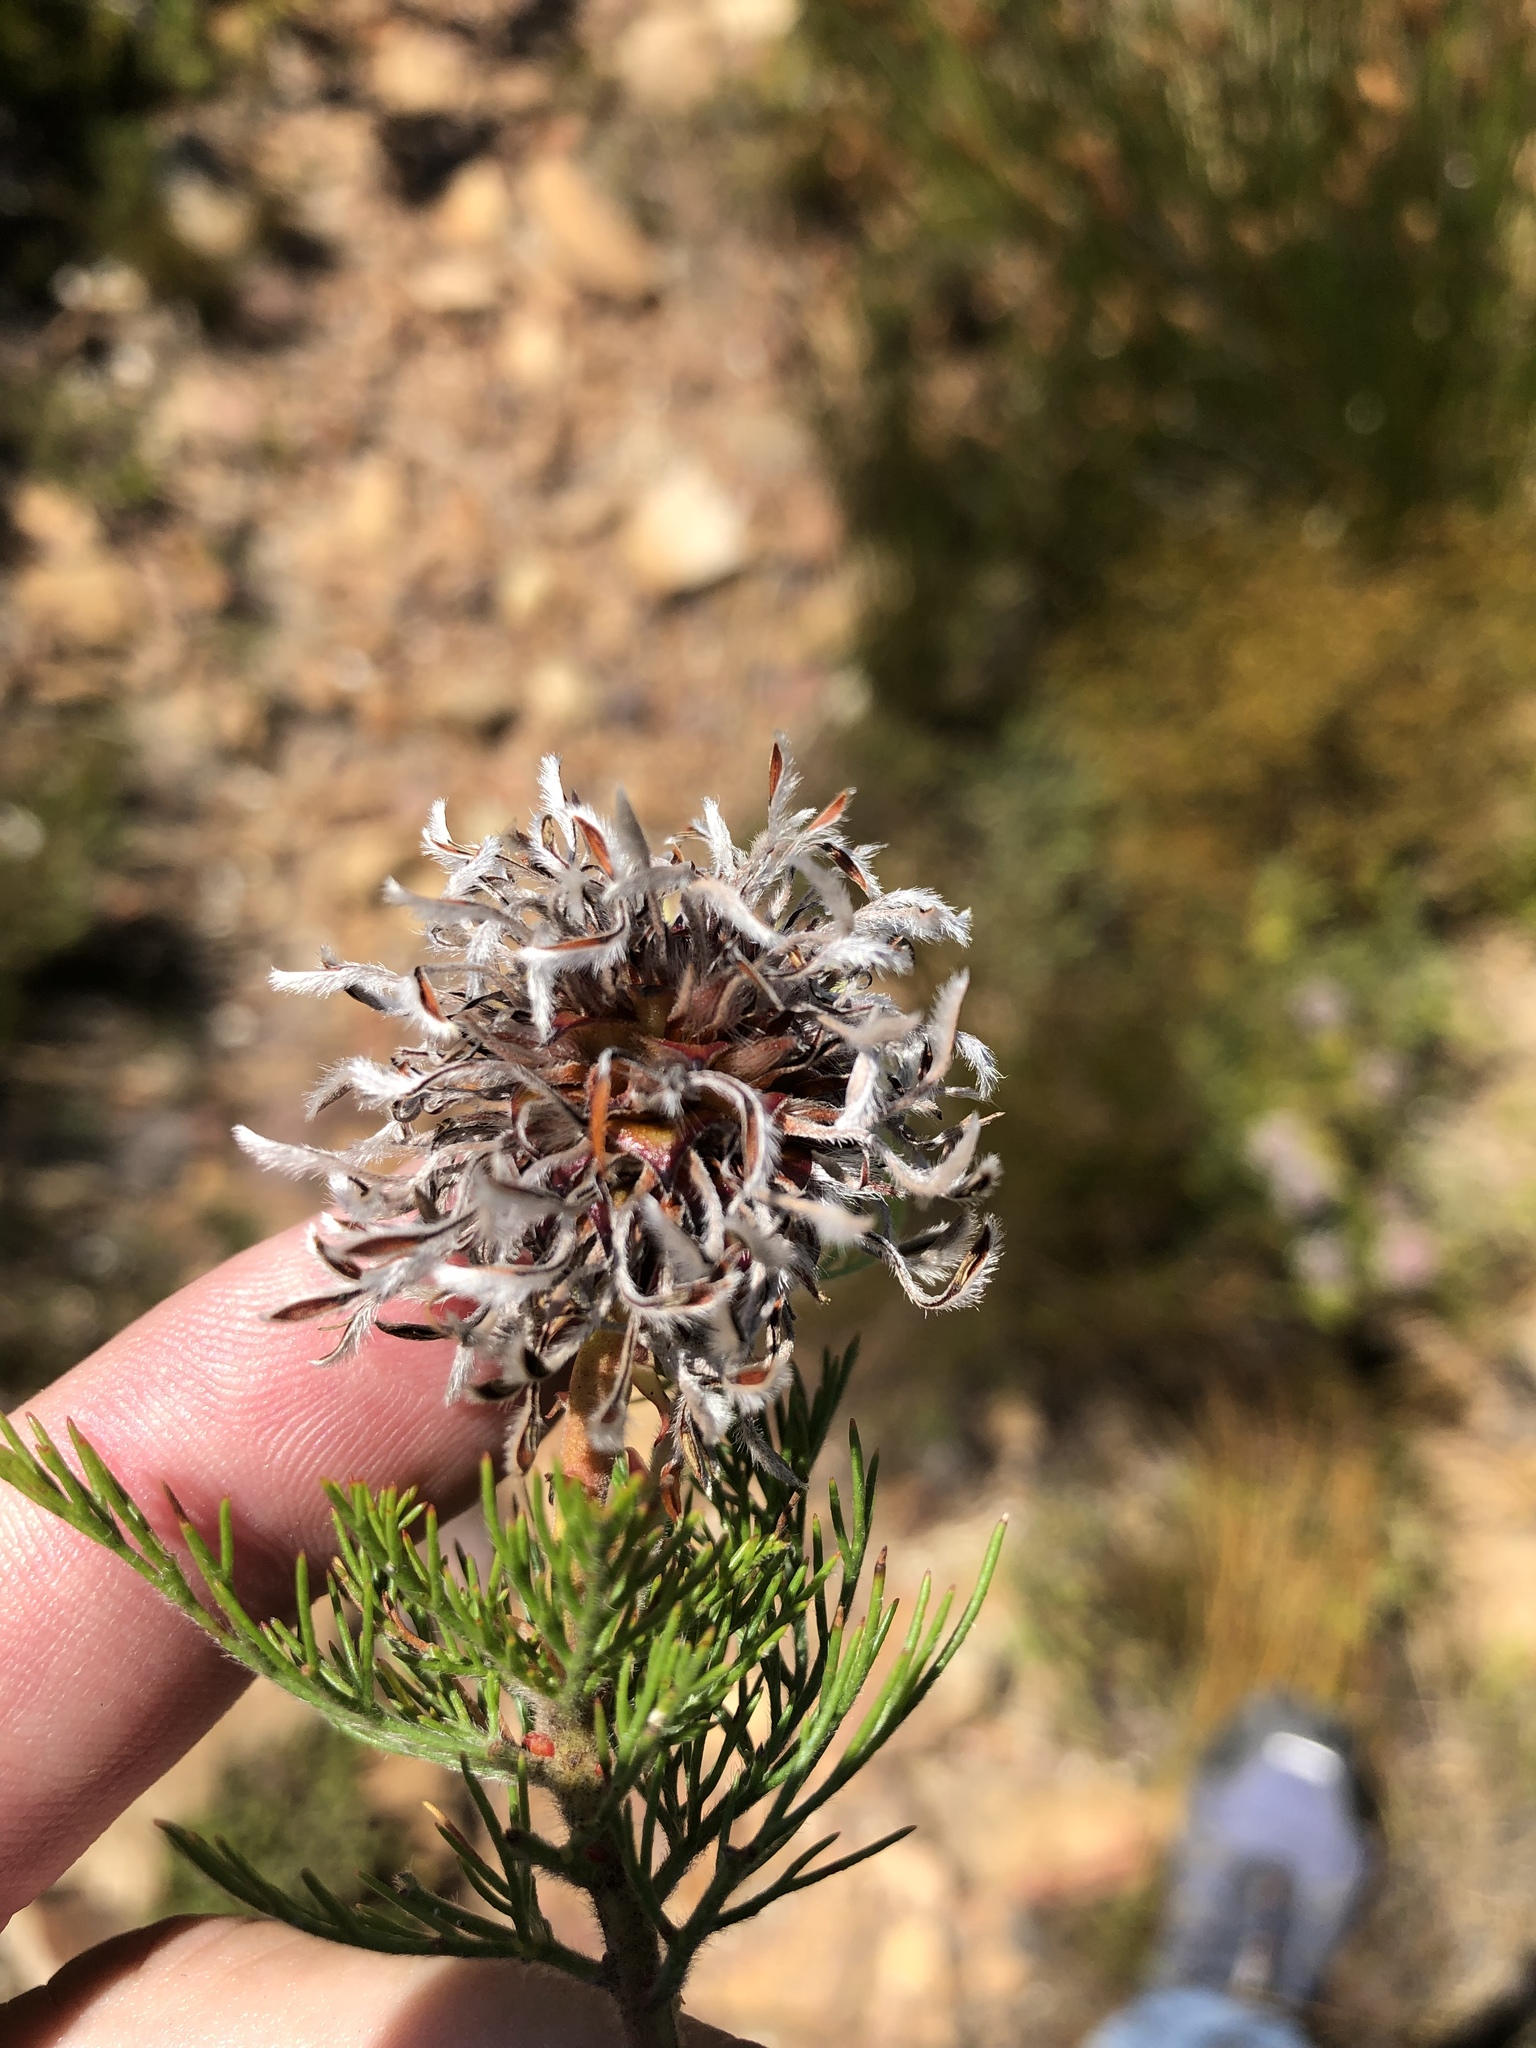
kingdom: Plantae
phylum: Tracheophyta
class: Magnoliopsida
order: Proteales
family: Proteaceae
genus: Serruria
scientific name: Serruria acrocarpa
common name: Common rootstock spiderhead
